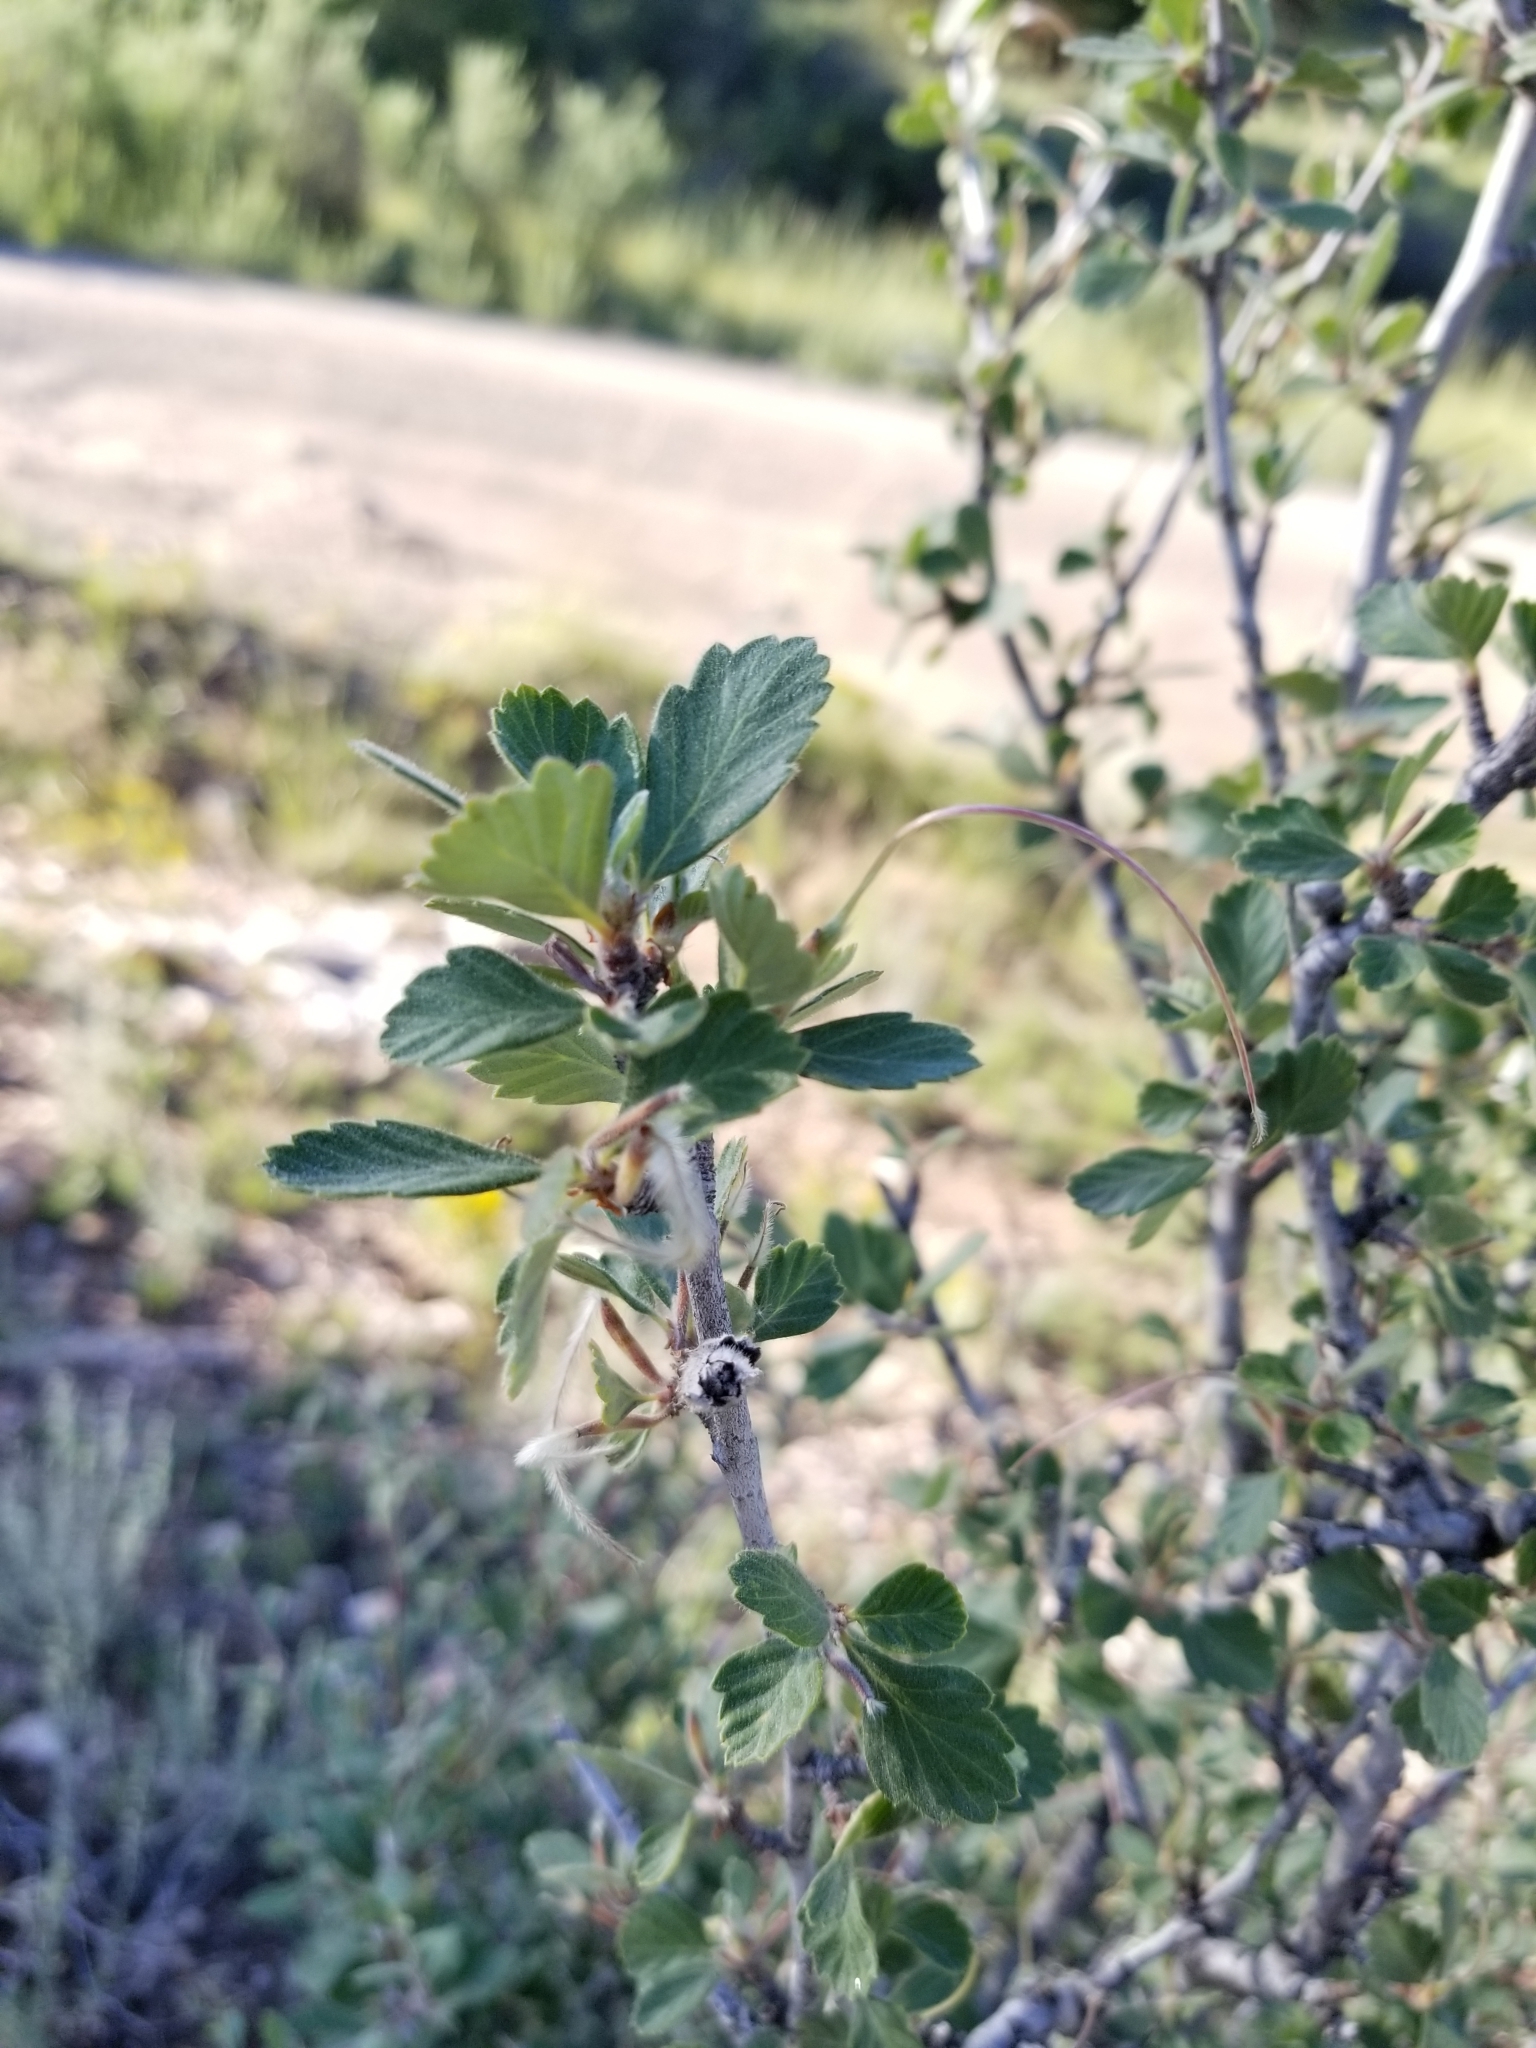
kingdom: Plantae
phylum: Tracheophyta
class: Magnoliopsida
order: Rosales
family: Rosaceae
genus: Cercocarpus
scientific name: Cercocarpus montanus
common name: Alder-leaf cercocarpus
